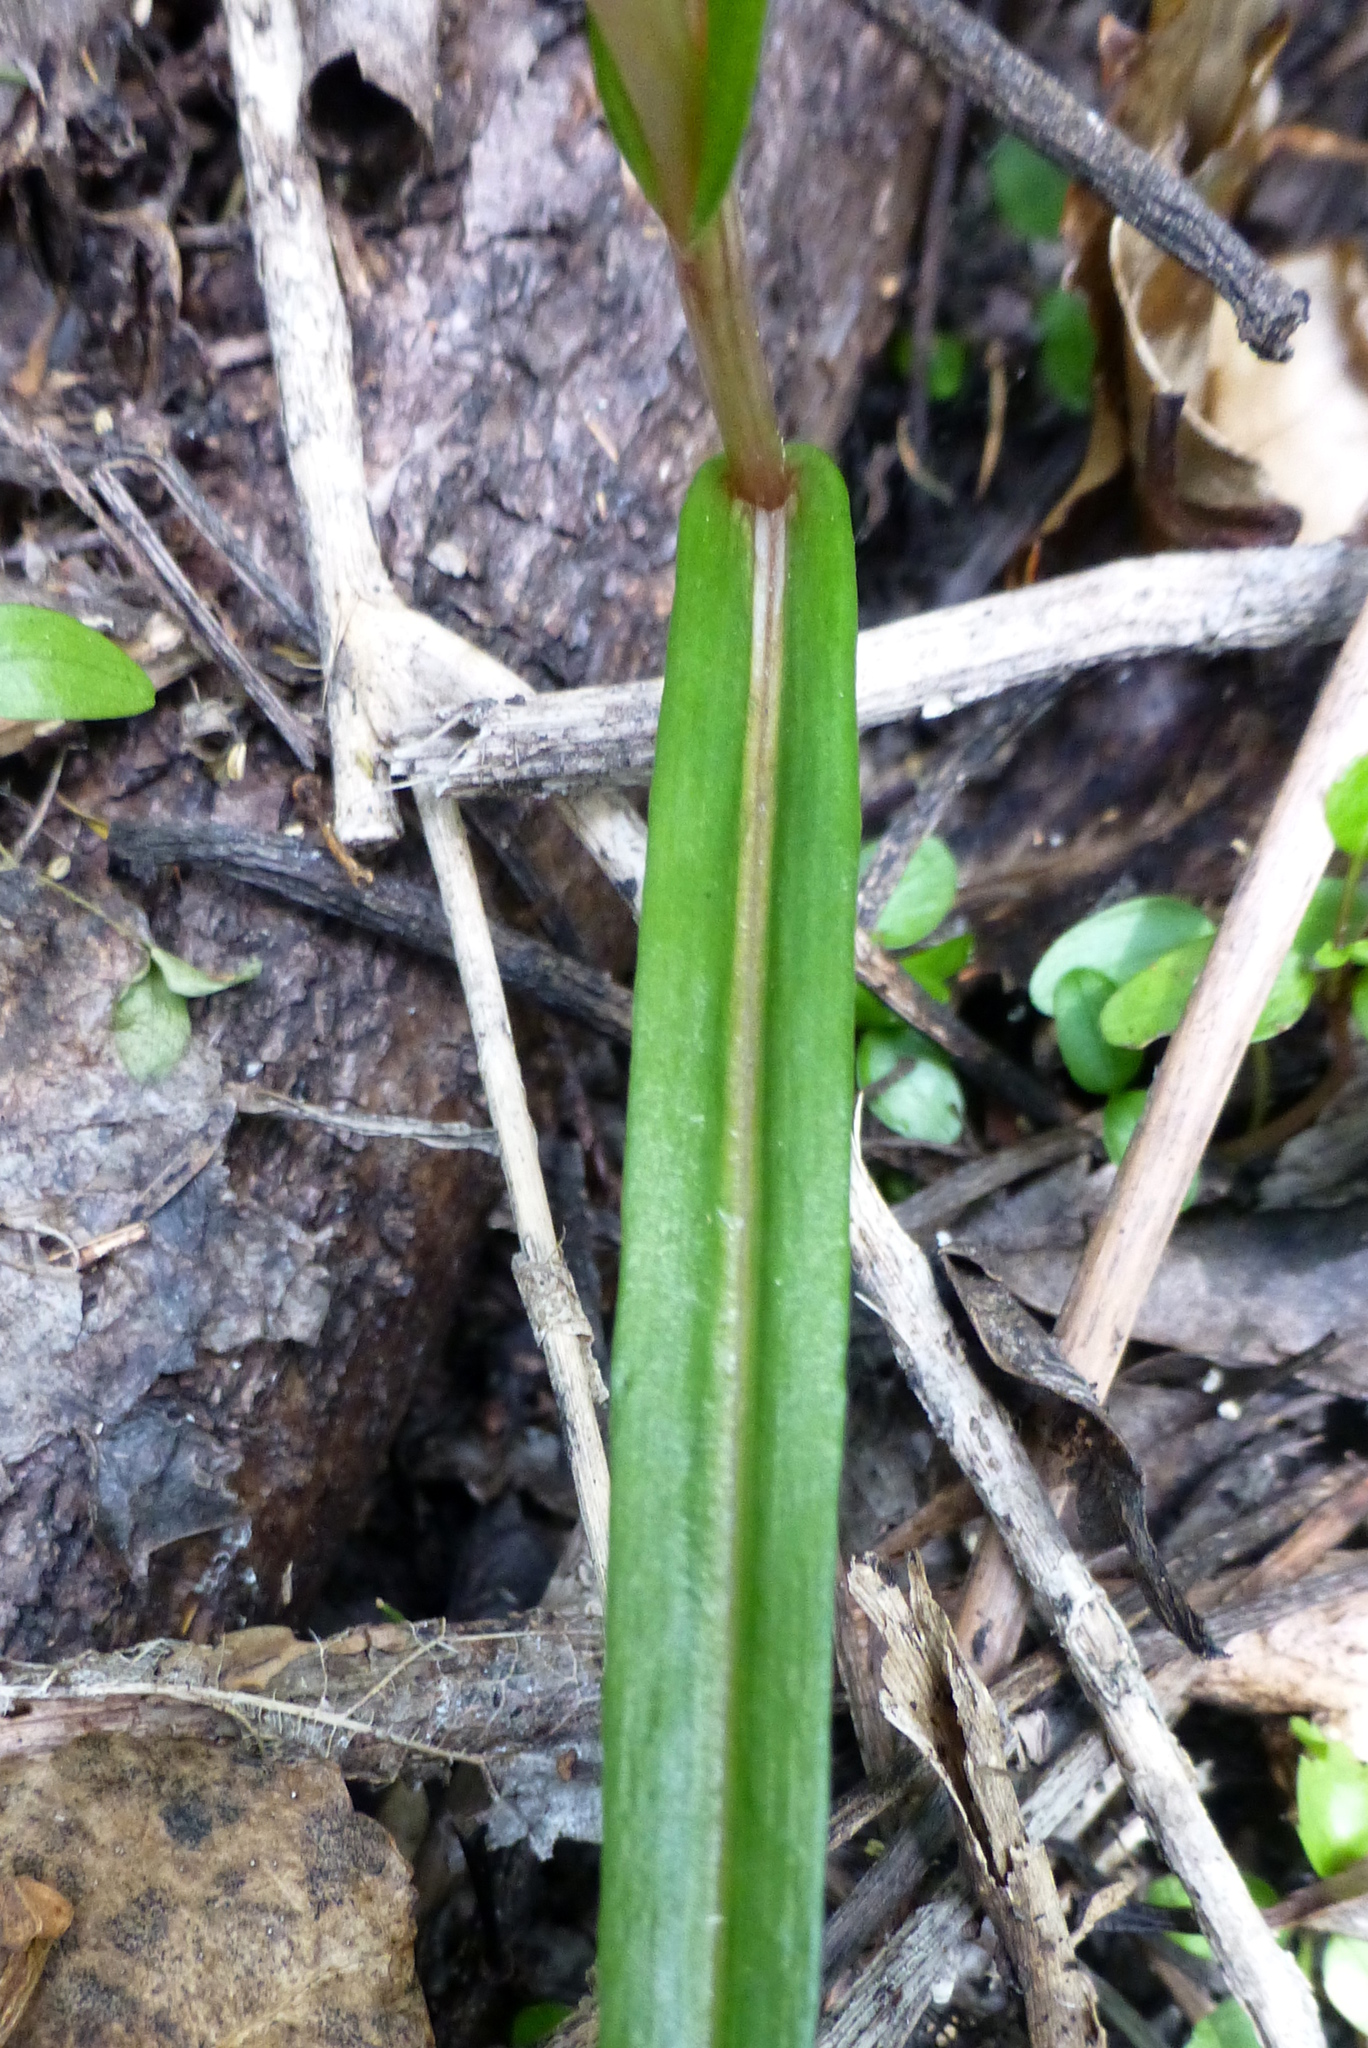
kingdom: Plantae
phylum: Tracheophyta
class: Liliopsida
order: Asparagales
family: Orchidaceae
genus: Pterostylis
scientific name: Pterostylis irsoniana
